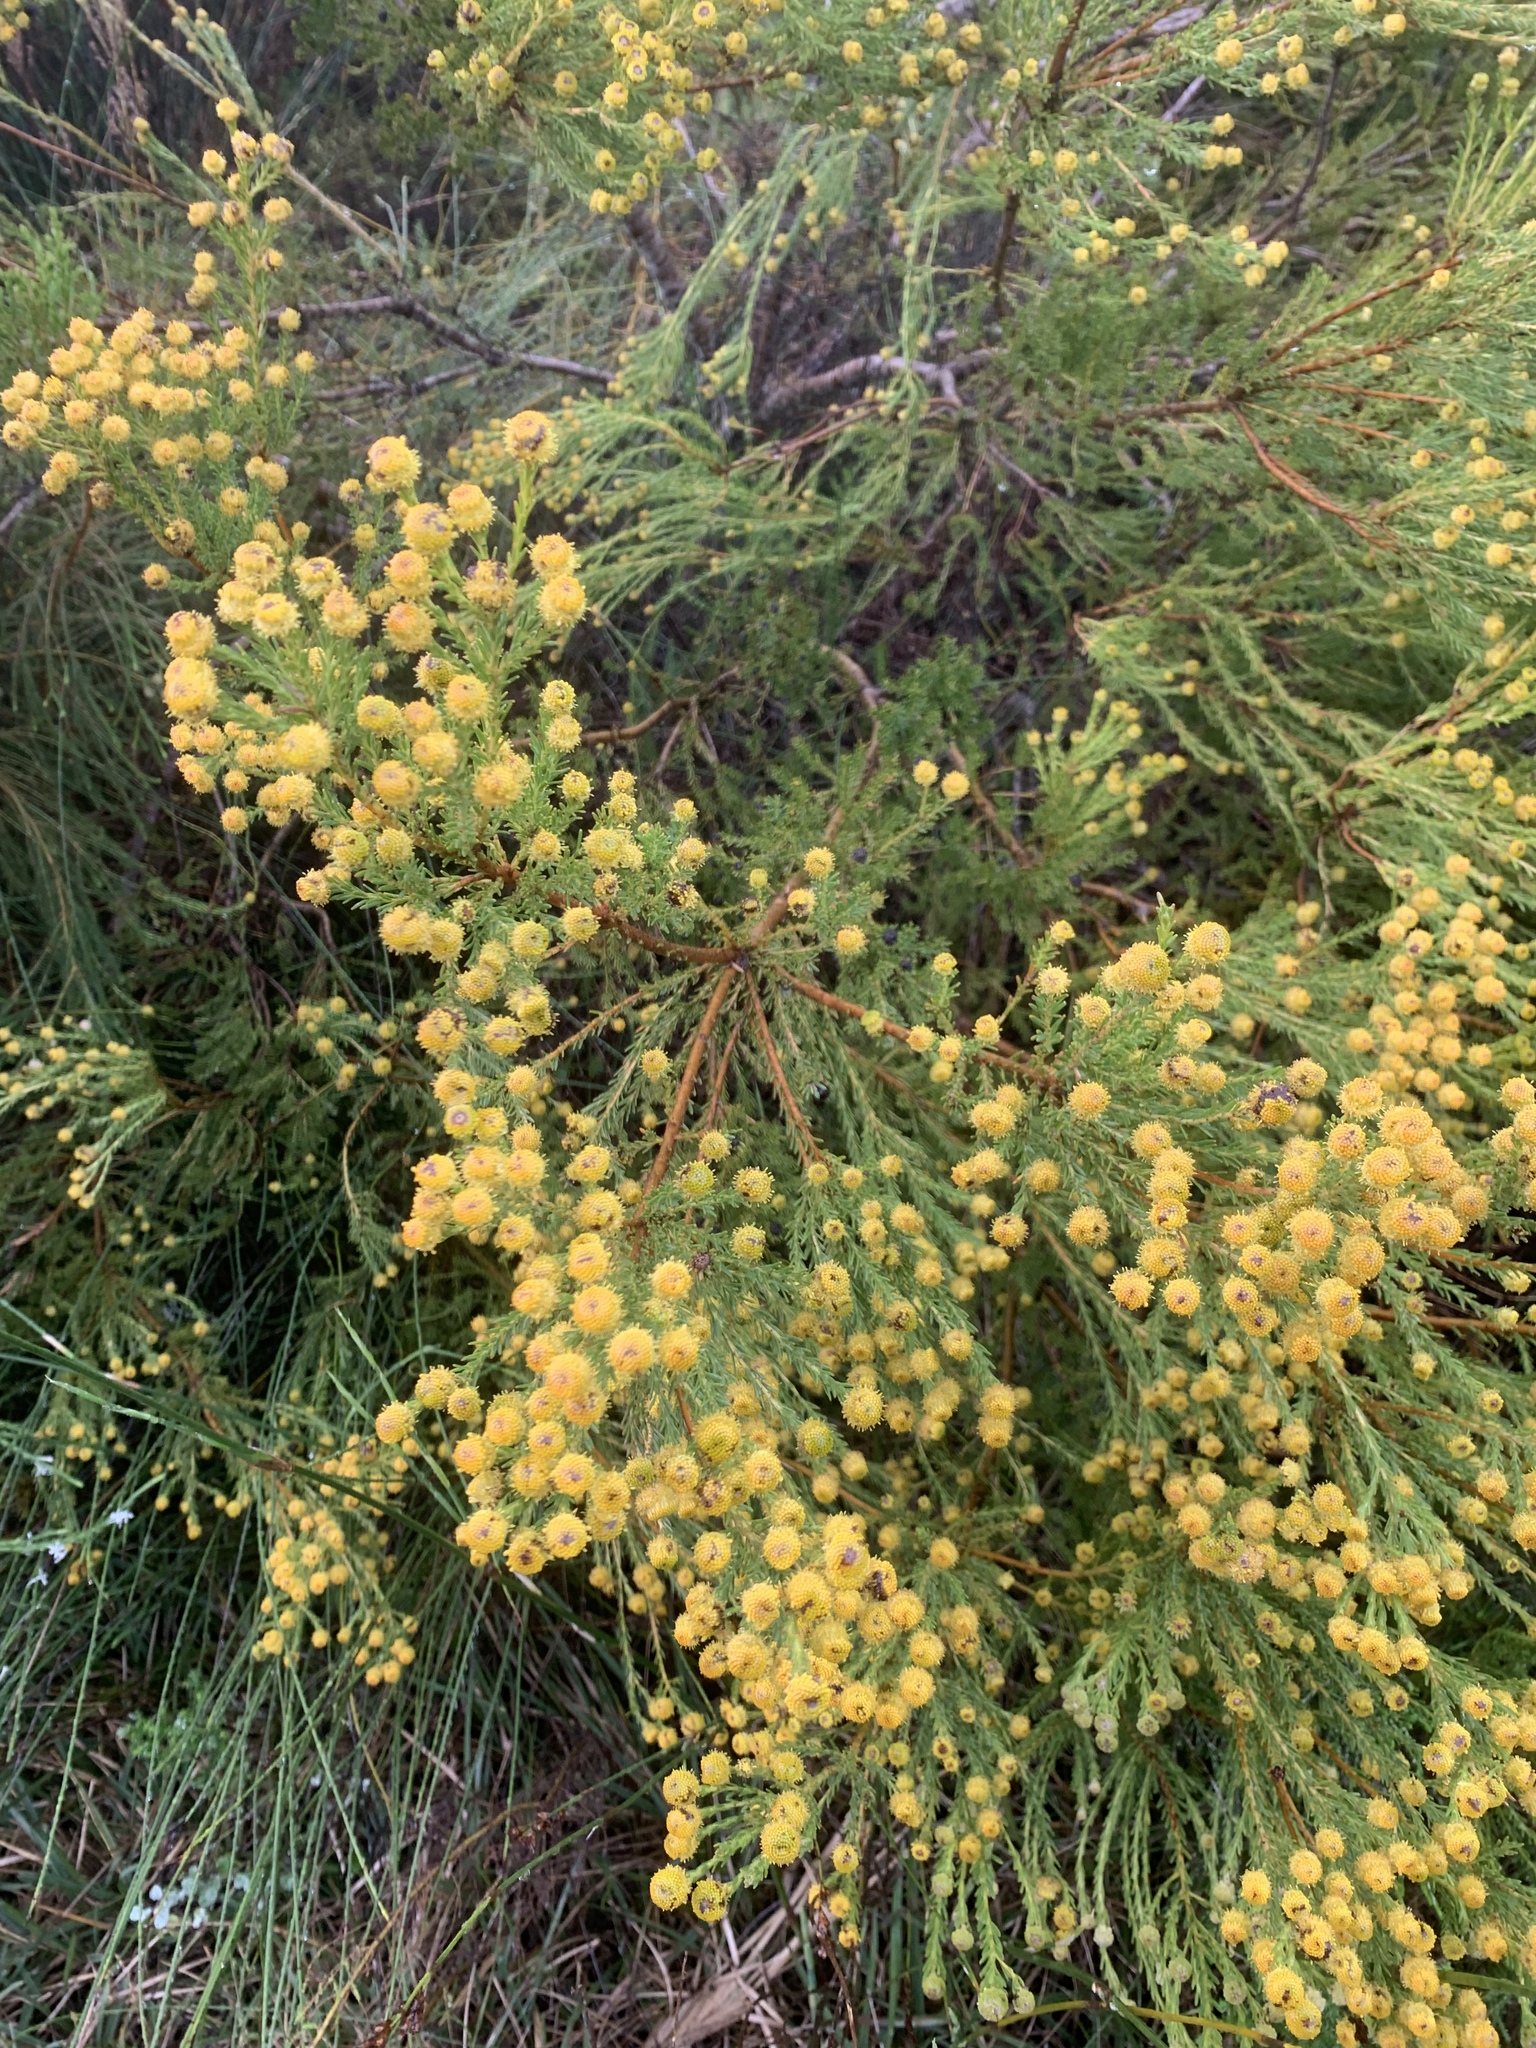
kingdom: Plantae
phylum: Tracheophyta
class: Magnoliopsida
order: Proteales
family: Proteaceae
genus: Leucadendron
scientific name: Leucadendron linifolium
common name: Line-leaf conebush
